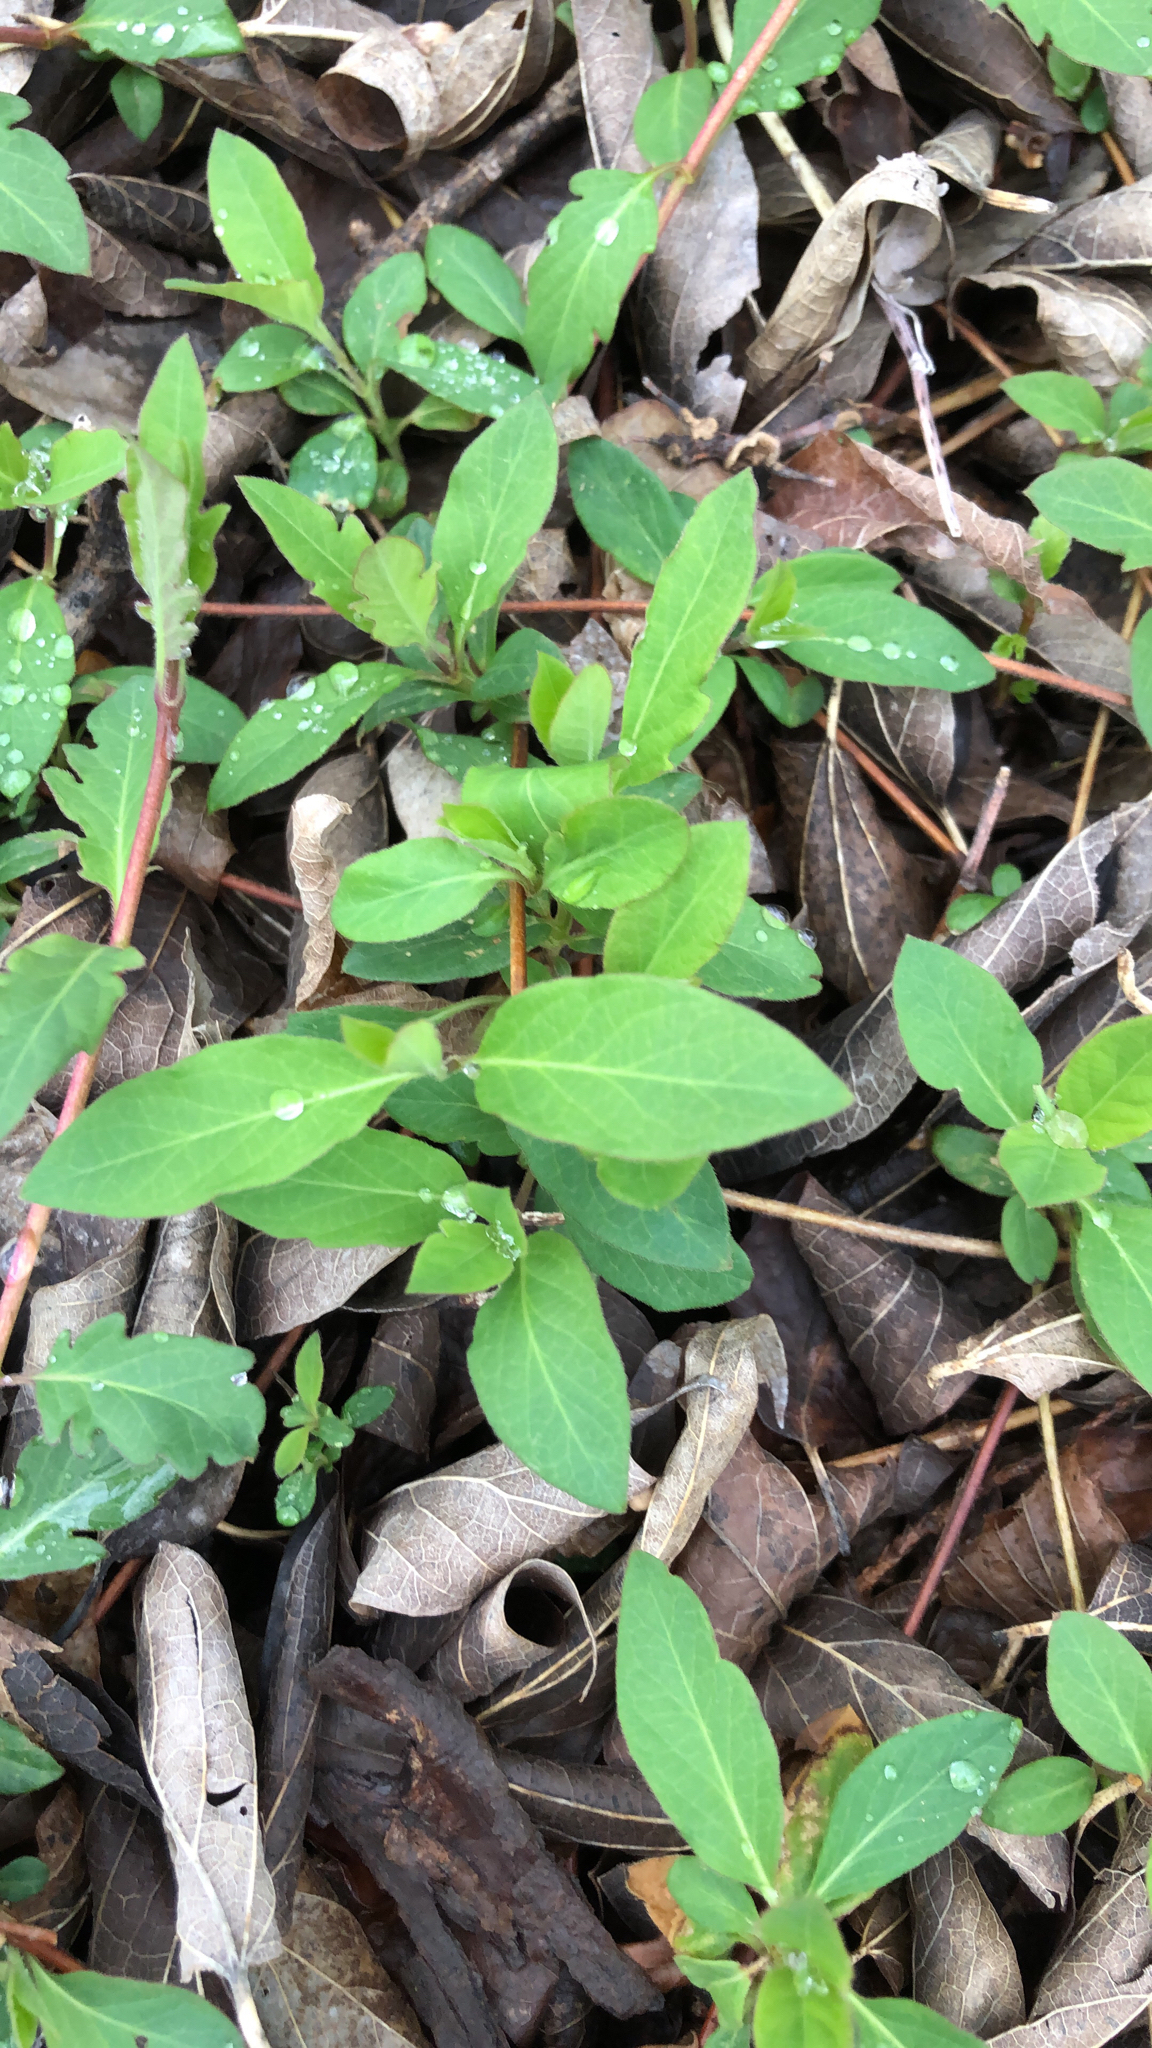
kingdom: Plantae
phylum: Tracheophyta
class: Magnoliopsida
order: Dipsacales
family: Caprifoliaceae
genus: Lonicera
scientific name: Lonicera japonica
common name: Japanese honeysuckle
